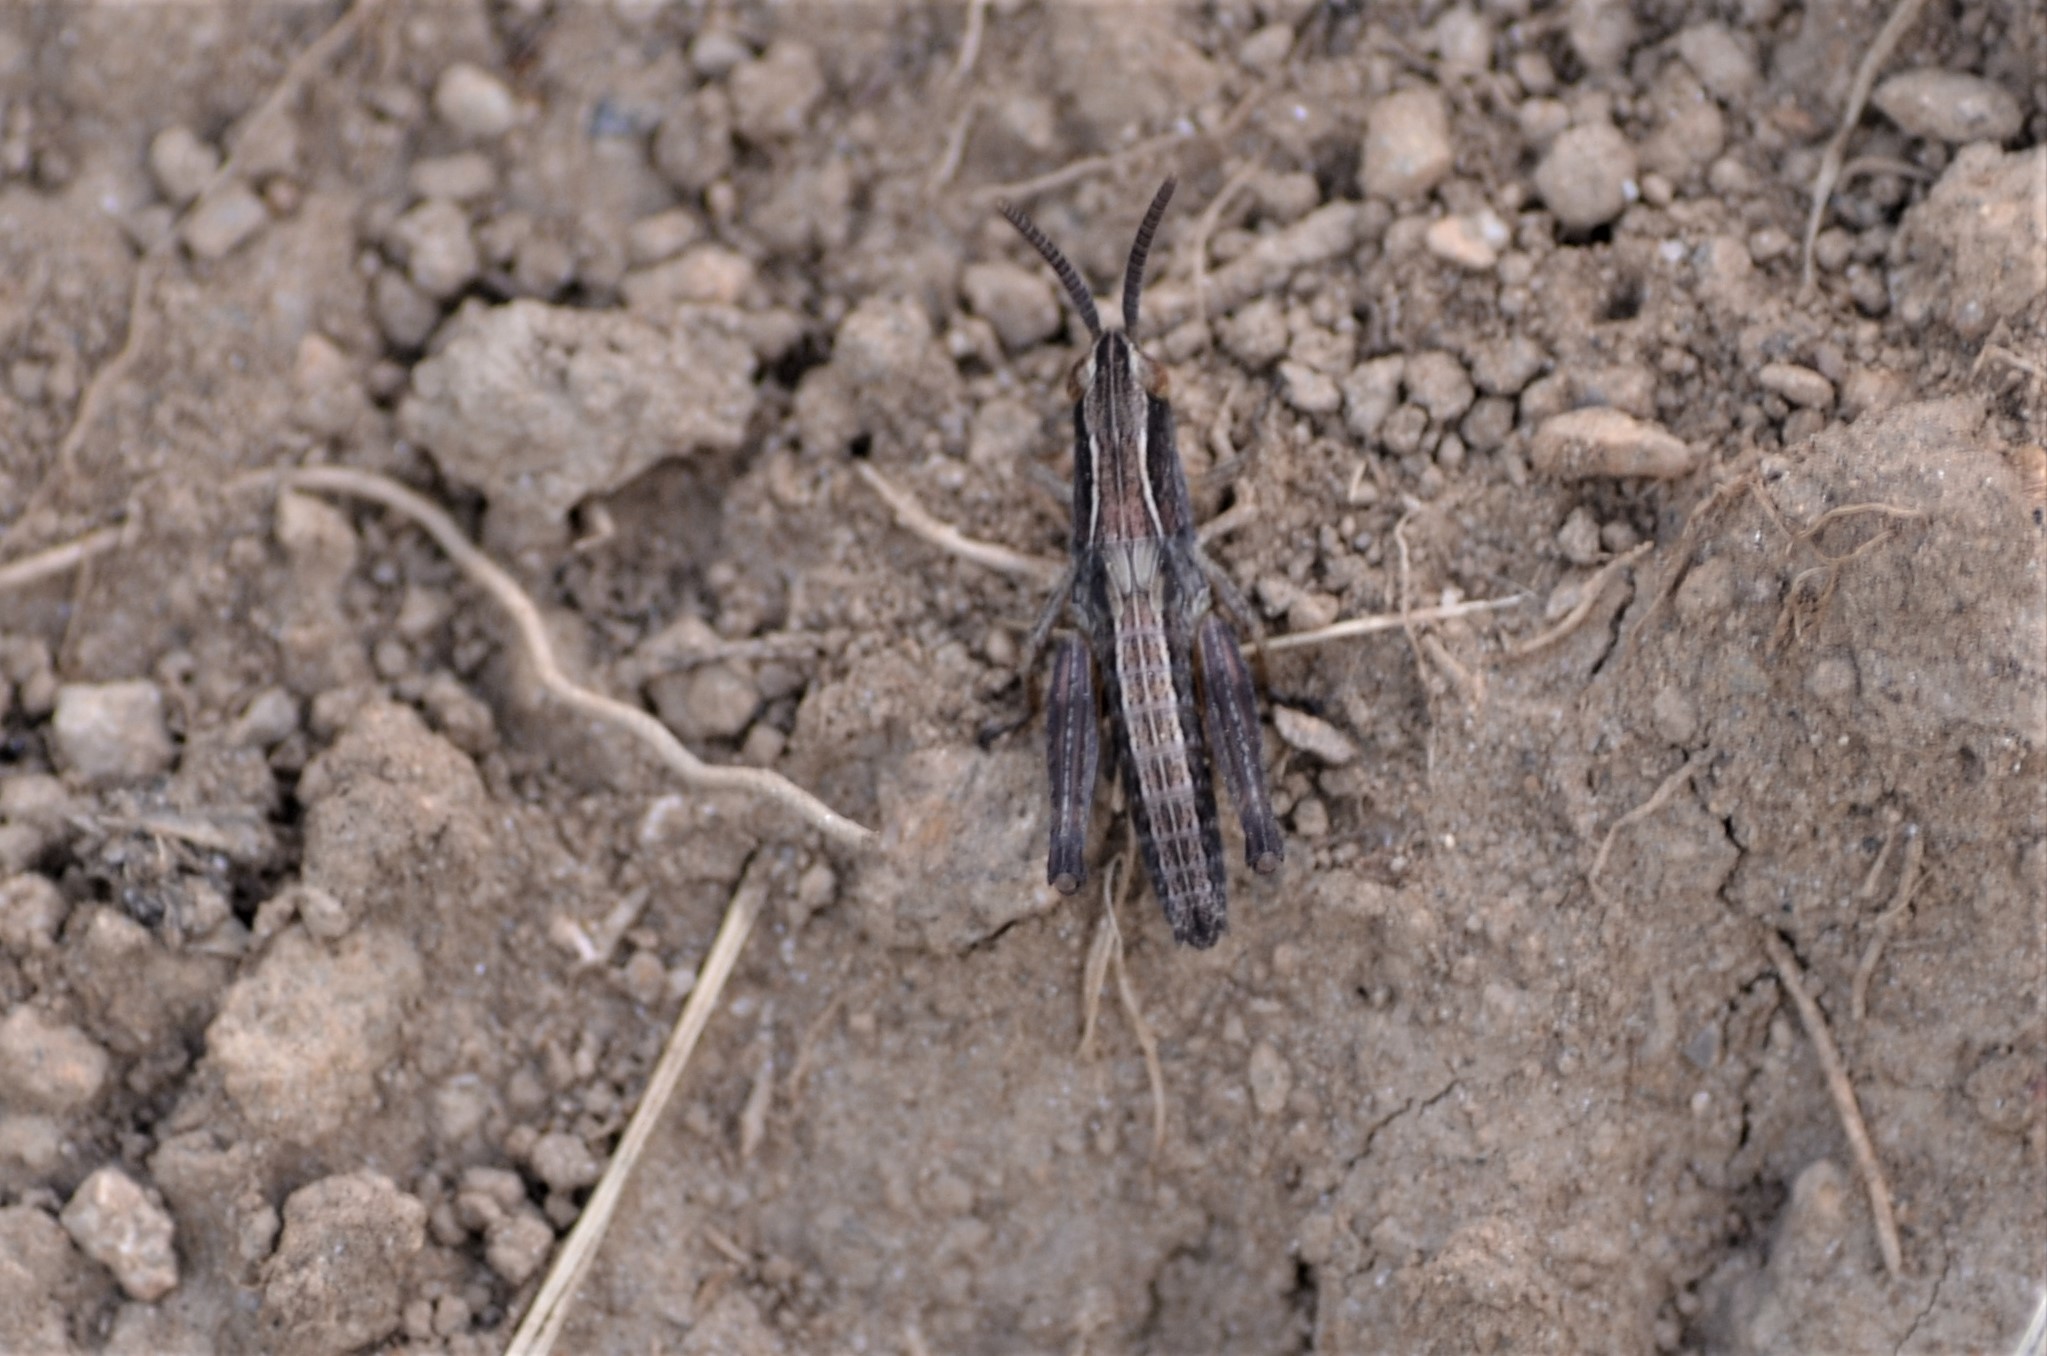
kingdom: Animalia
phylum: Arthropoda
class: Insecta
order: Orthoptera
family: Acrididae
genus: Pseudochorthippus
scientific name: Pseudochorthippus parallelus
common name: Meadow grasshopper
